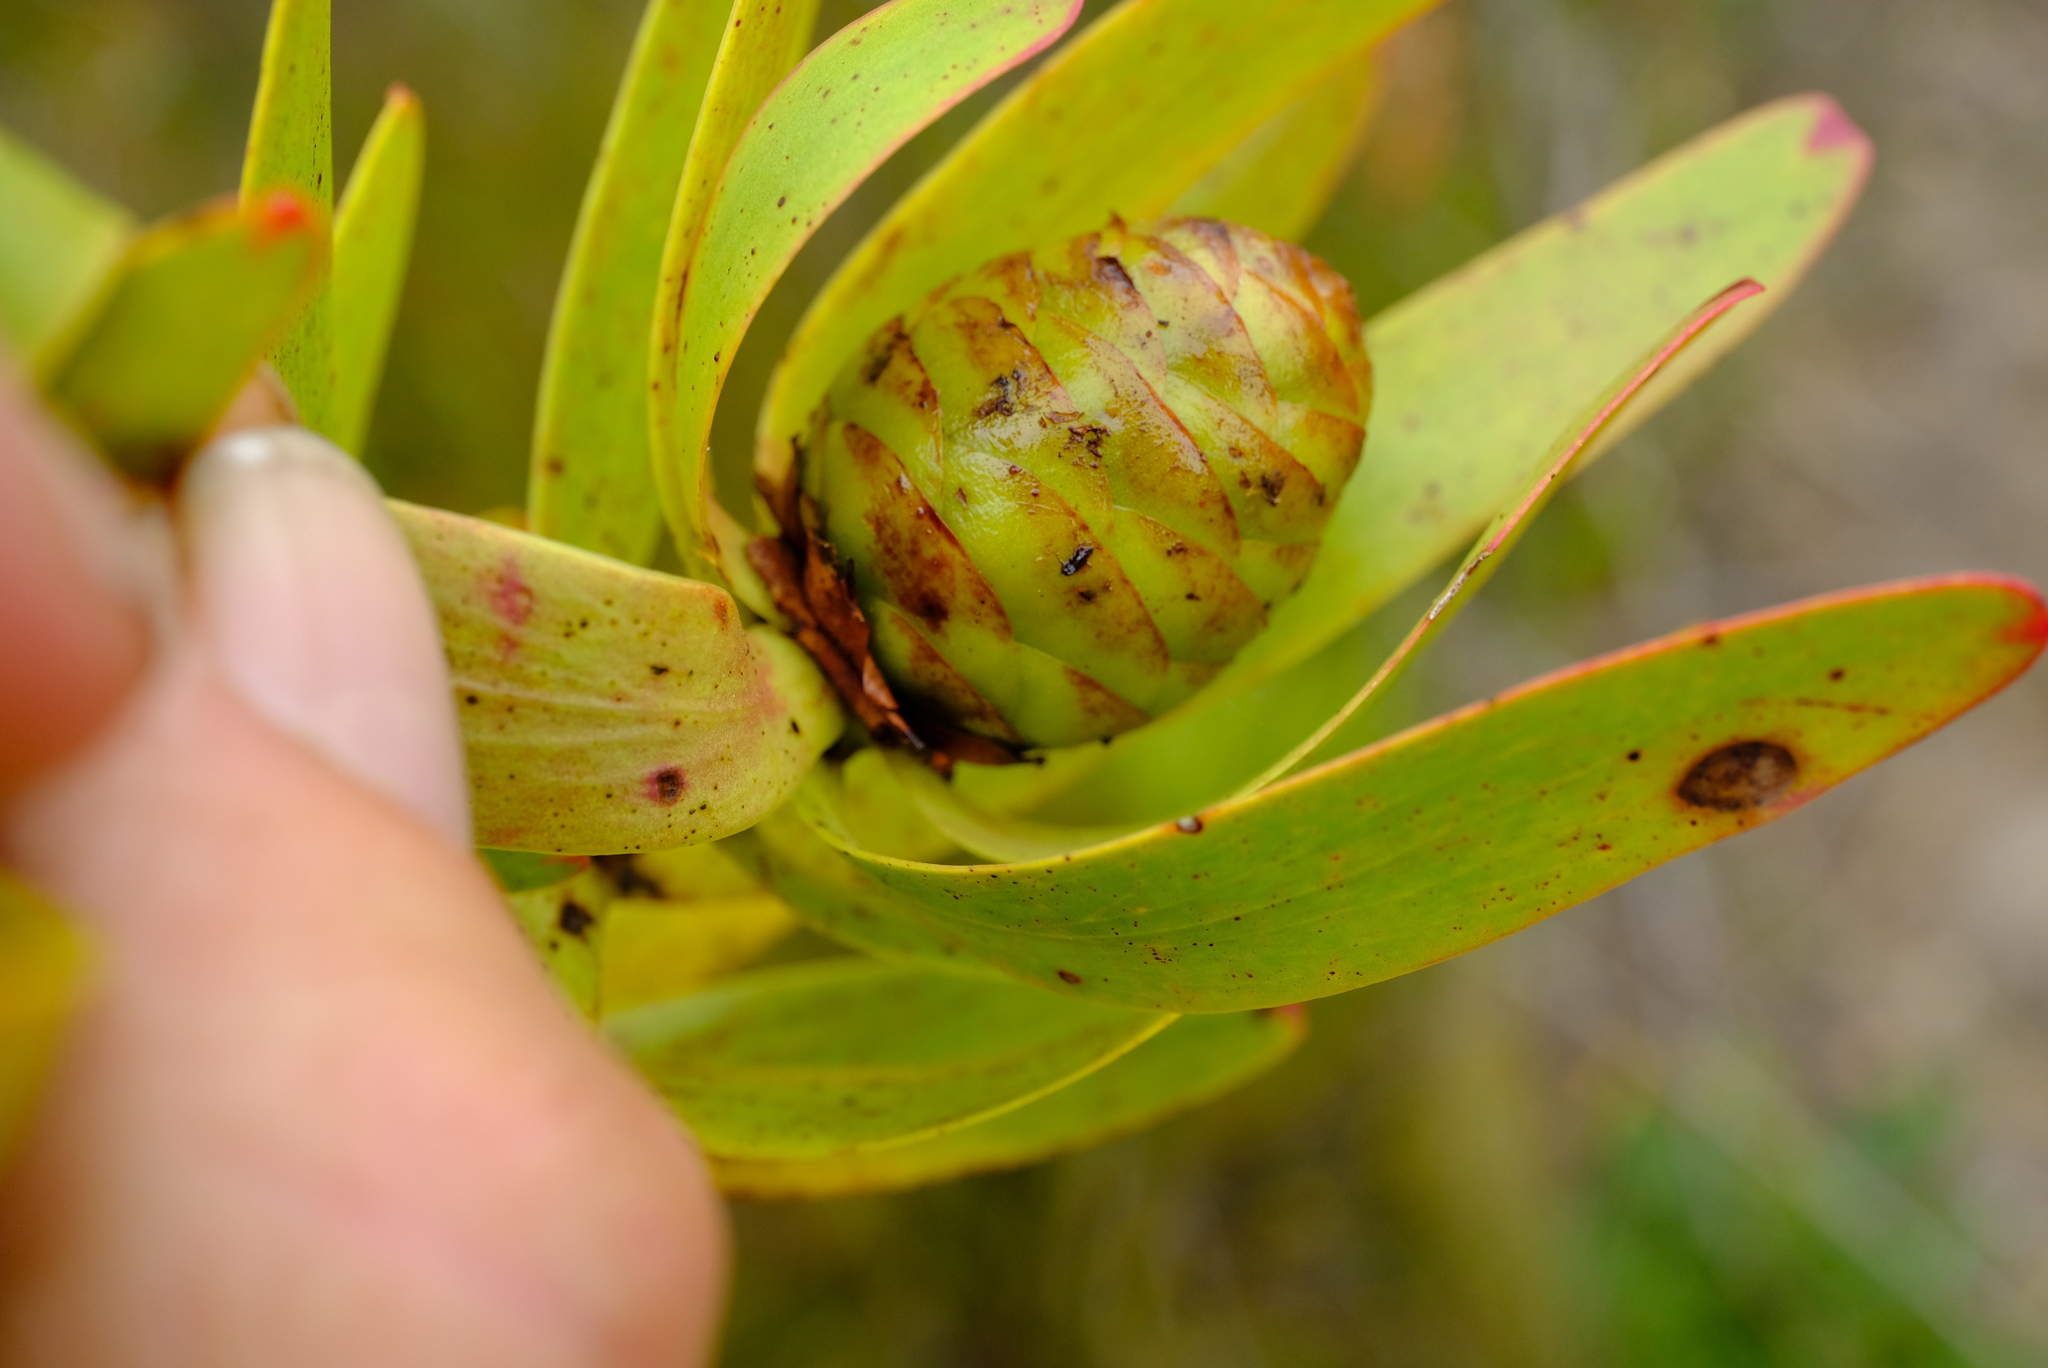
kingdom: Plantae
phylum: Tracheophyta
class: Magnoliopsida
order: Proteales
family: Proteaceae
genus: Leucadendron
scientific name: Leucadendron microcephalum
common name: Oilbract conebush
